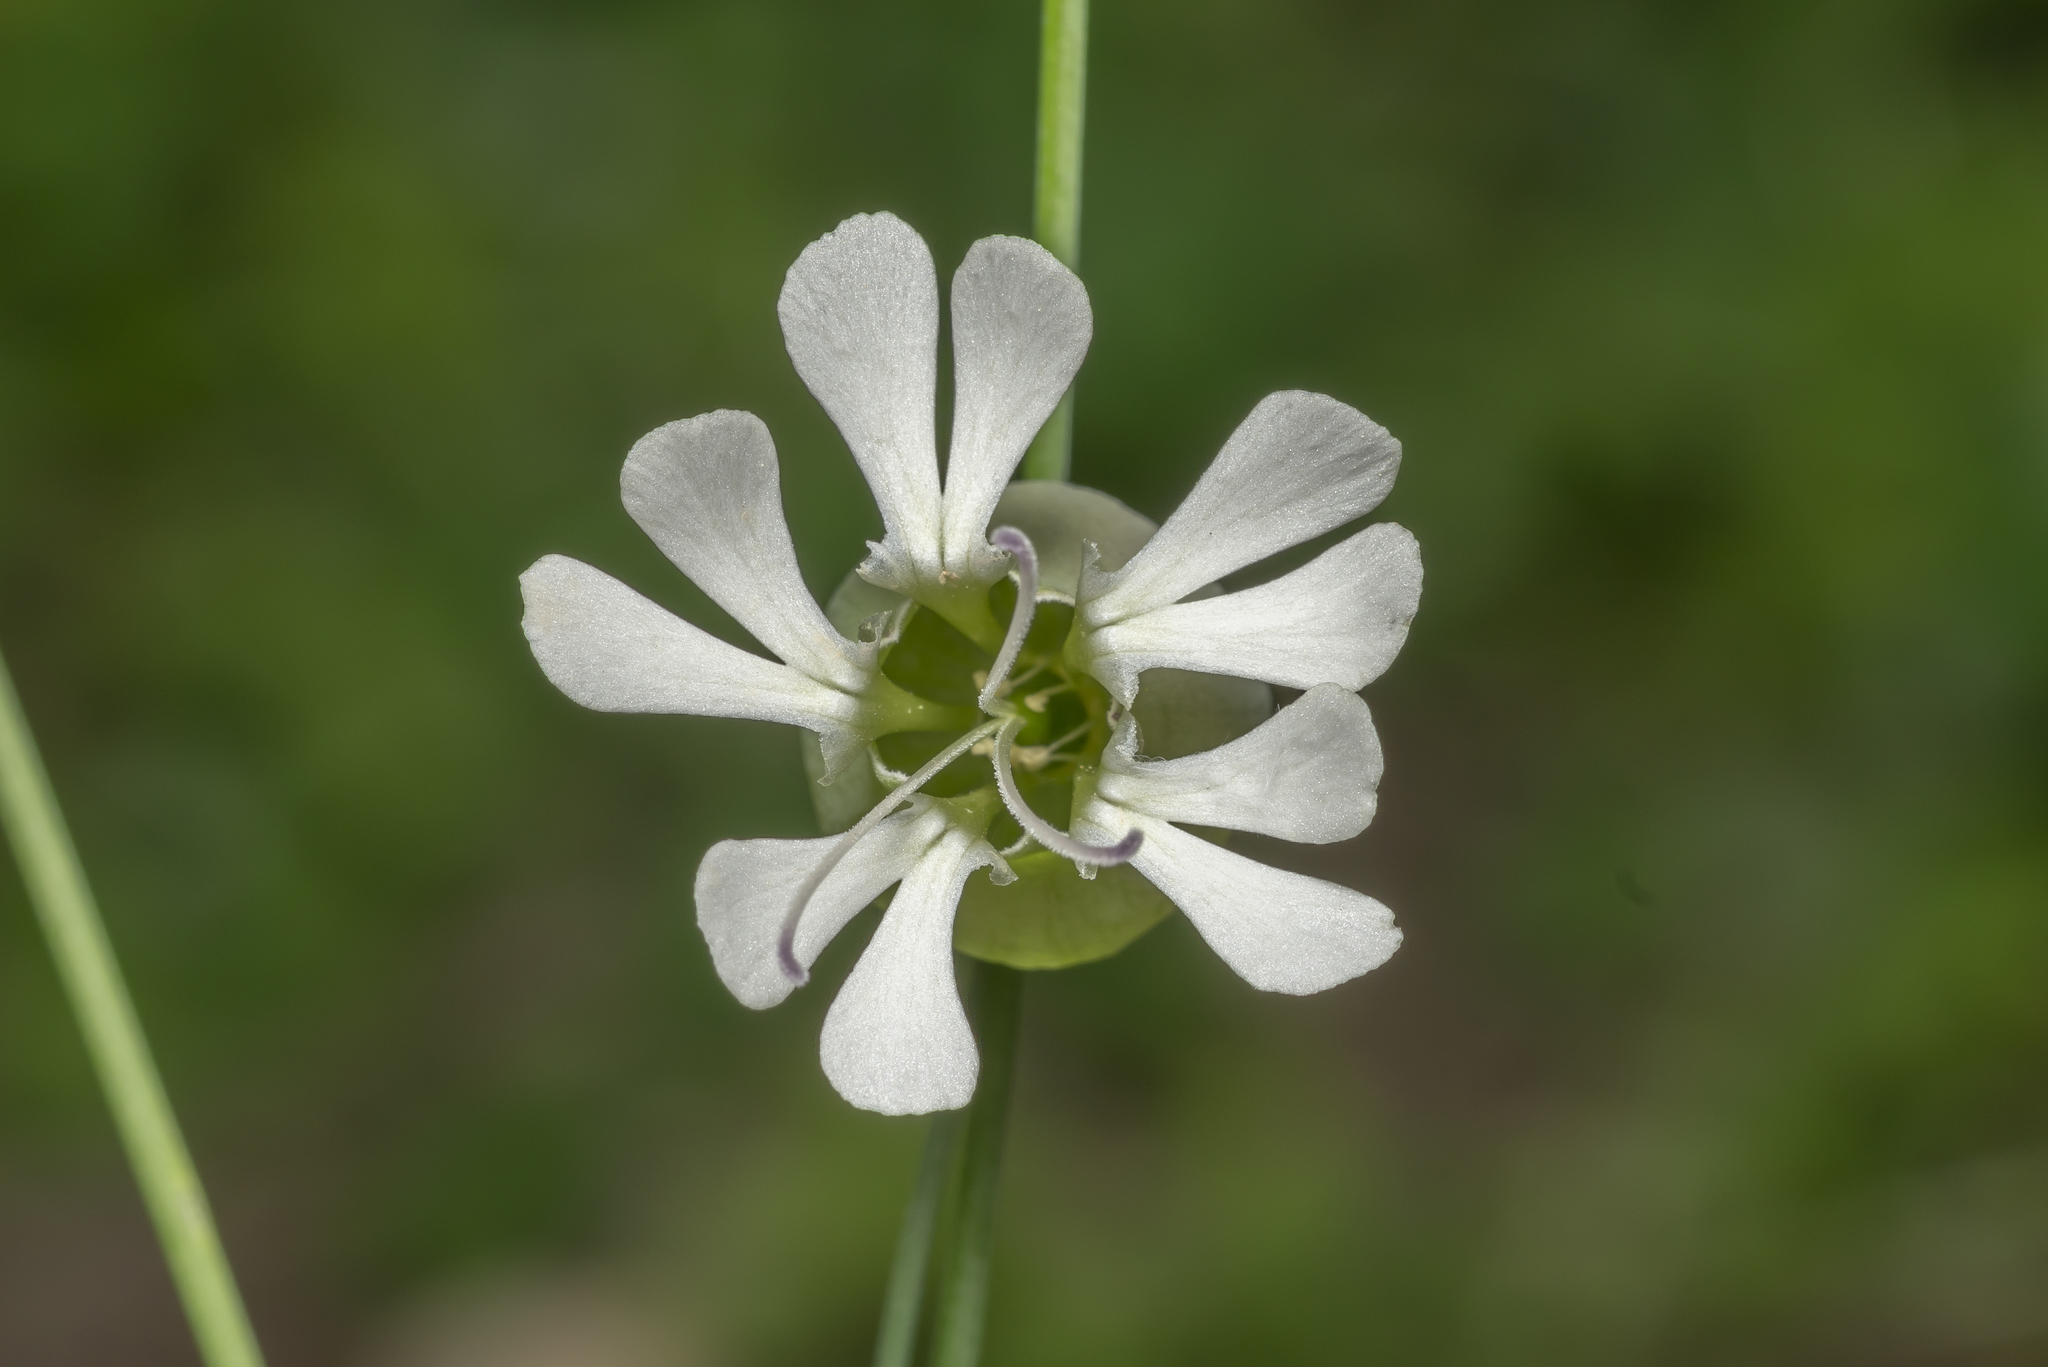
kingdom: Plantae
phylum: Tracheophyta
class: Magnoliopsida
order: Caryophyllales
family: Caryophyllaceae
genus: Silene
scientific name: Silene vulgaris
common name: Bladder campion
